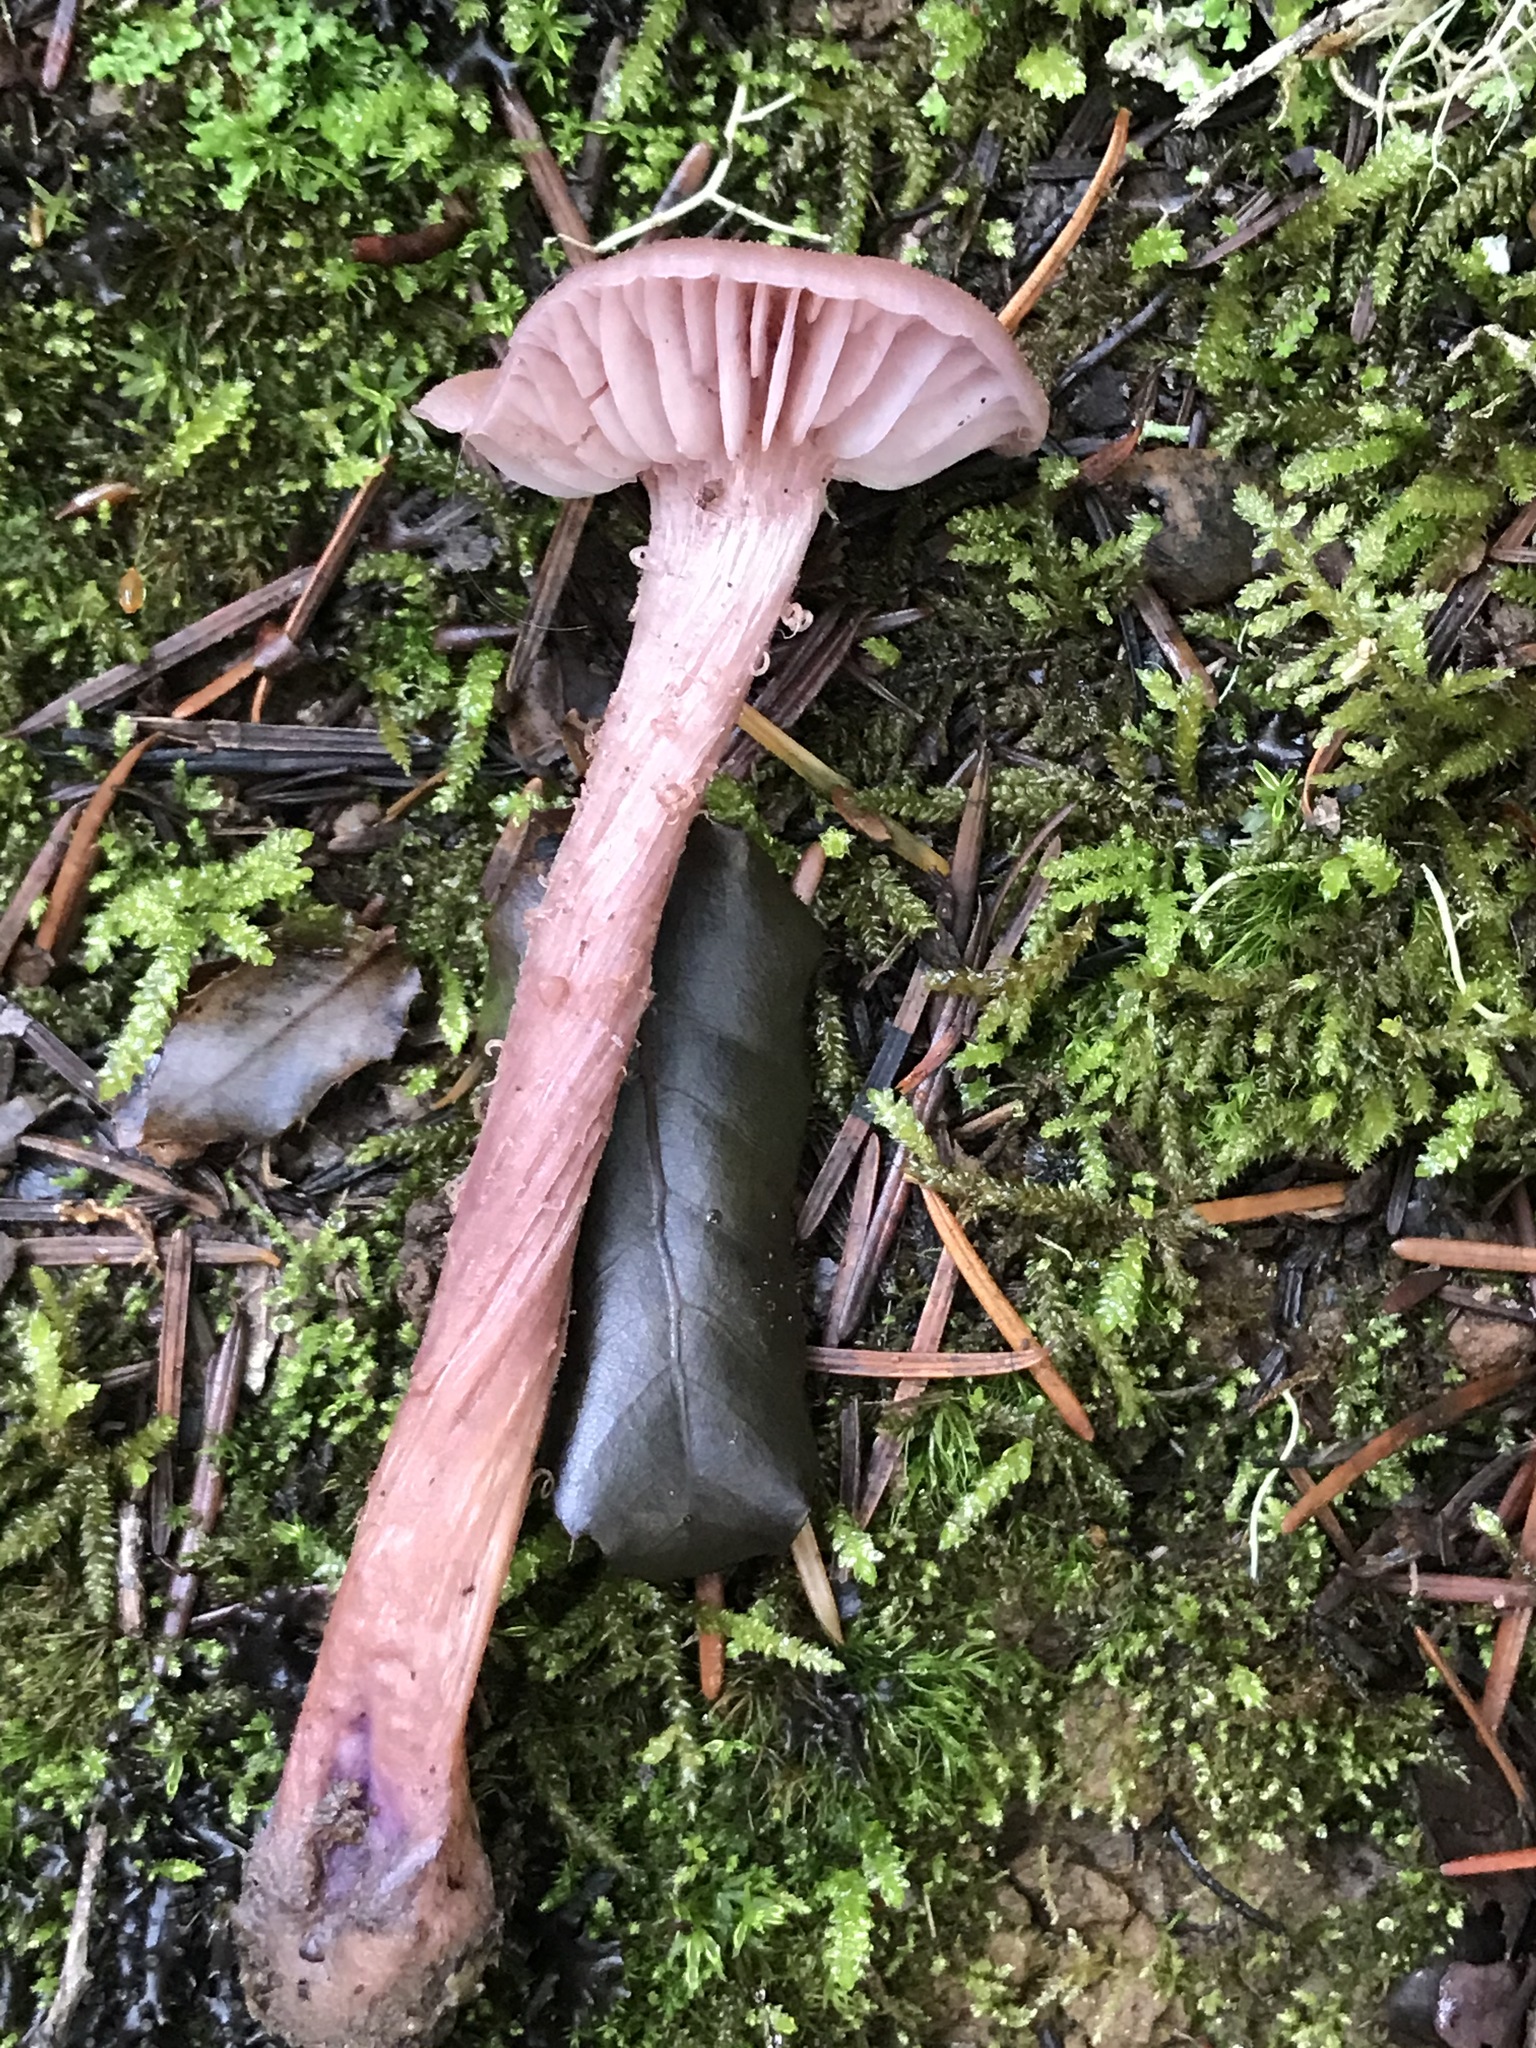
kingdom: Fungi
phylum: Basidiomycota
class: Agaricomycetes
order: Agaricales
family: Hydnangiaceae
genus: Laccaria
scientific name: Laccaria amethysteo-occidentalis
